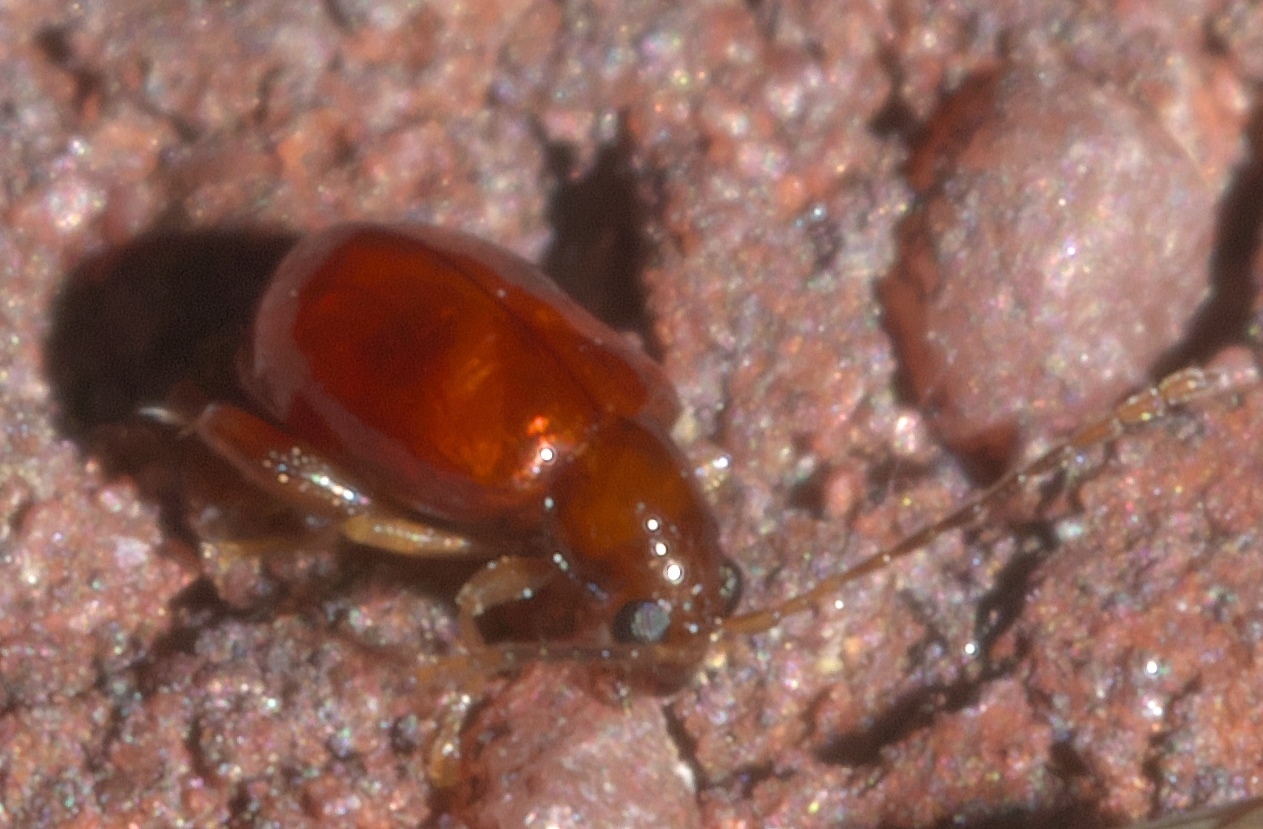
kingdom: Animalia
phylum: Arthropoda
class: Insecta
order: Coleoptera
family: Chrysomelidae
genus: Longitarsus
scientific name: Longitarsus varicornis
